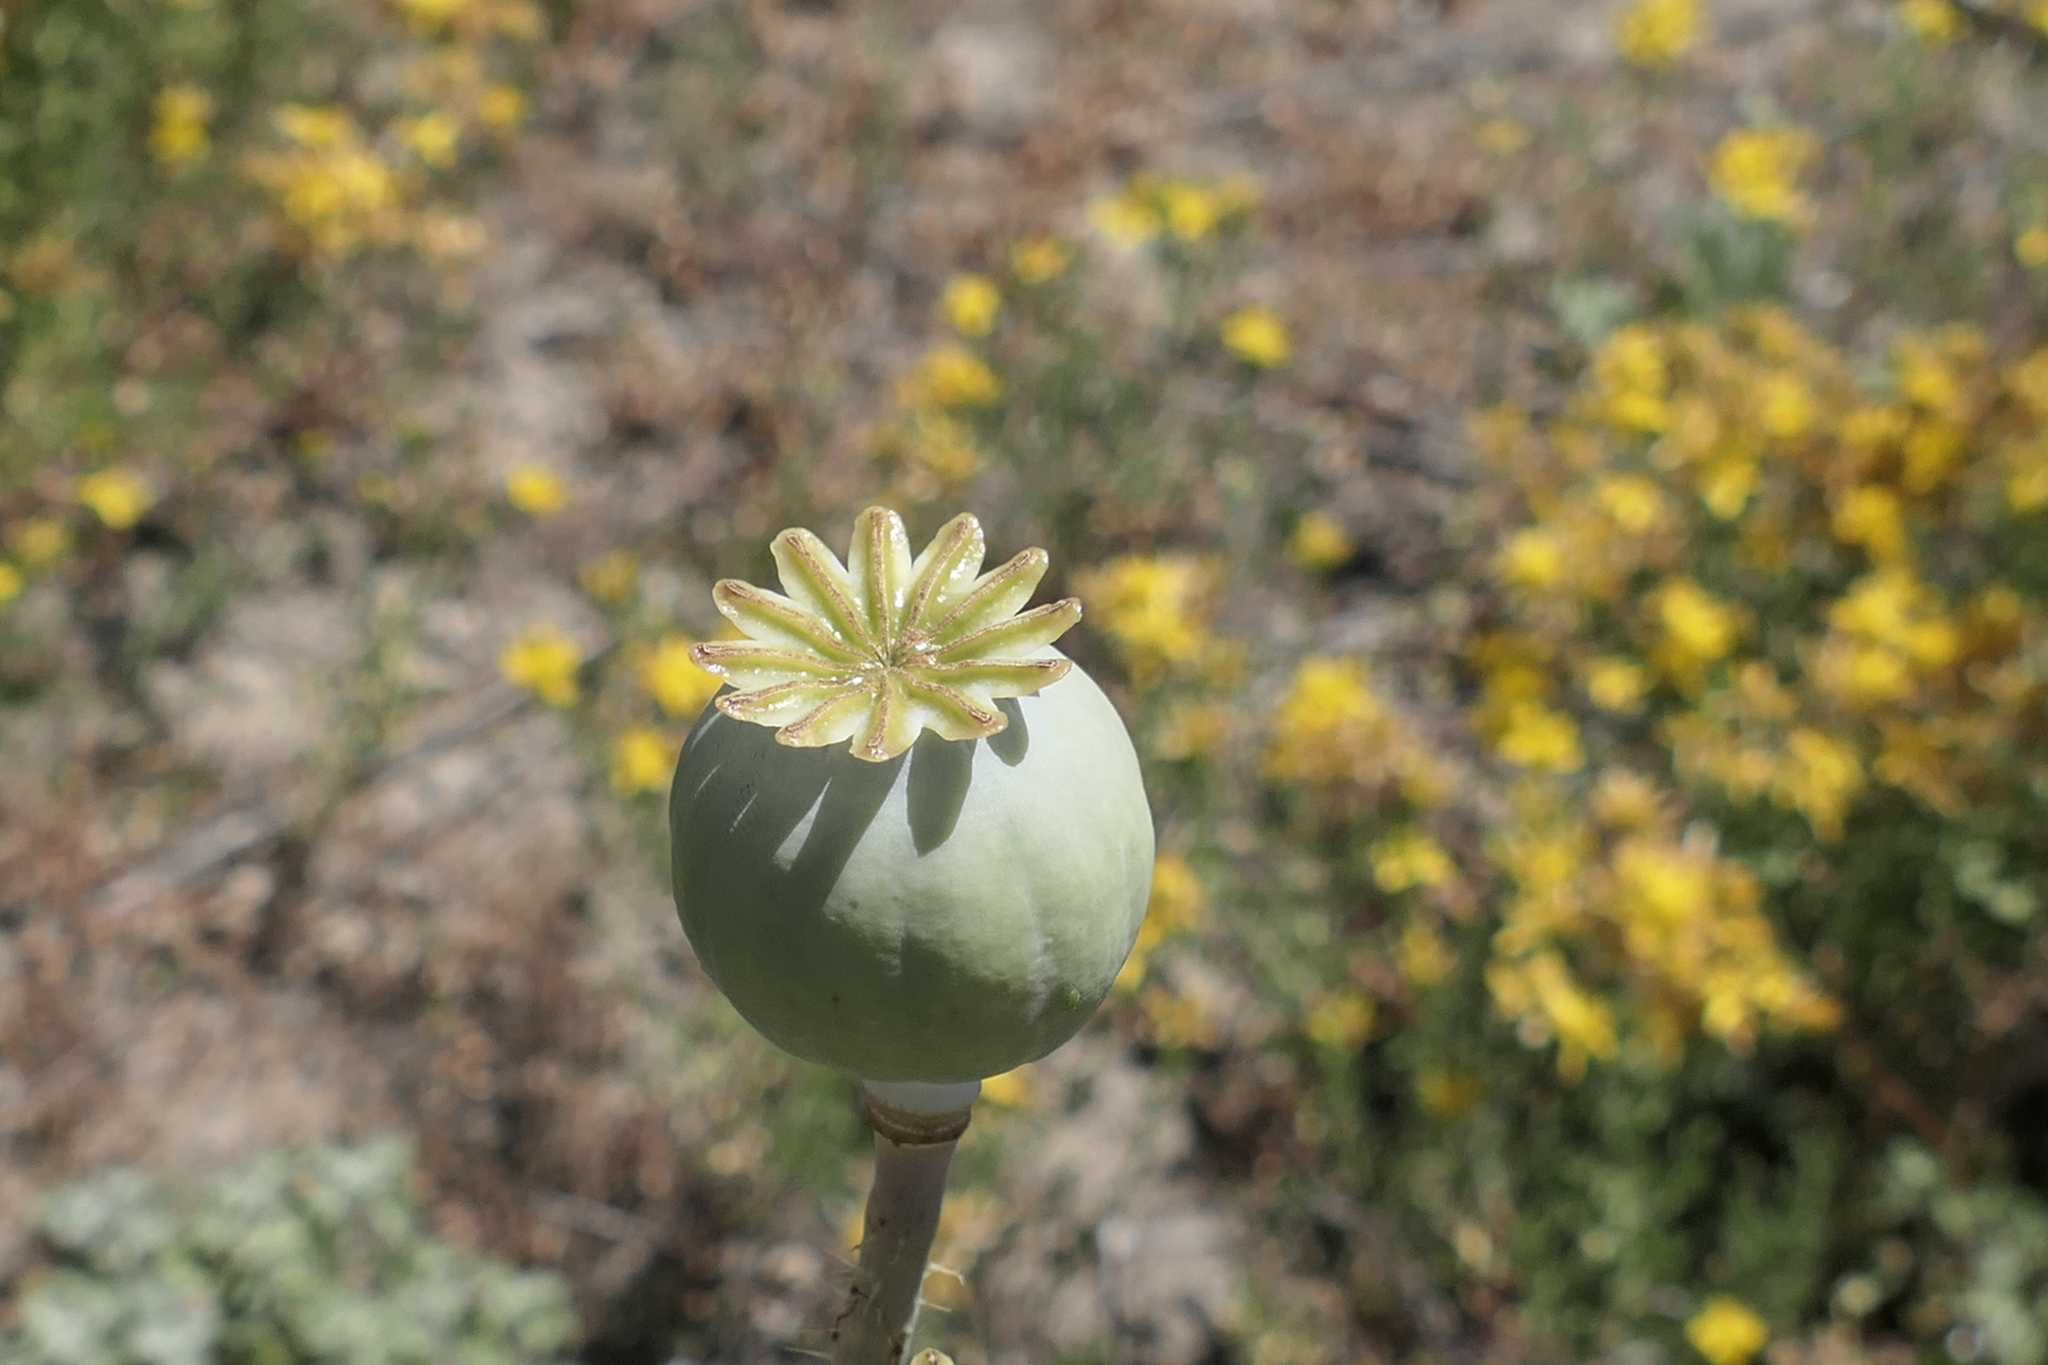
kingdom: Plantae
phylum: Tracheophyta
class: Magnoliopsida
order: Ranunculales
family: Papaveraceae
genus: Papaver
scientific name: Papaver somniferum
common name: Opium poppy
